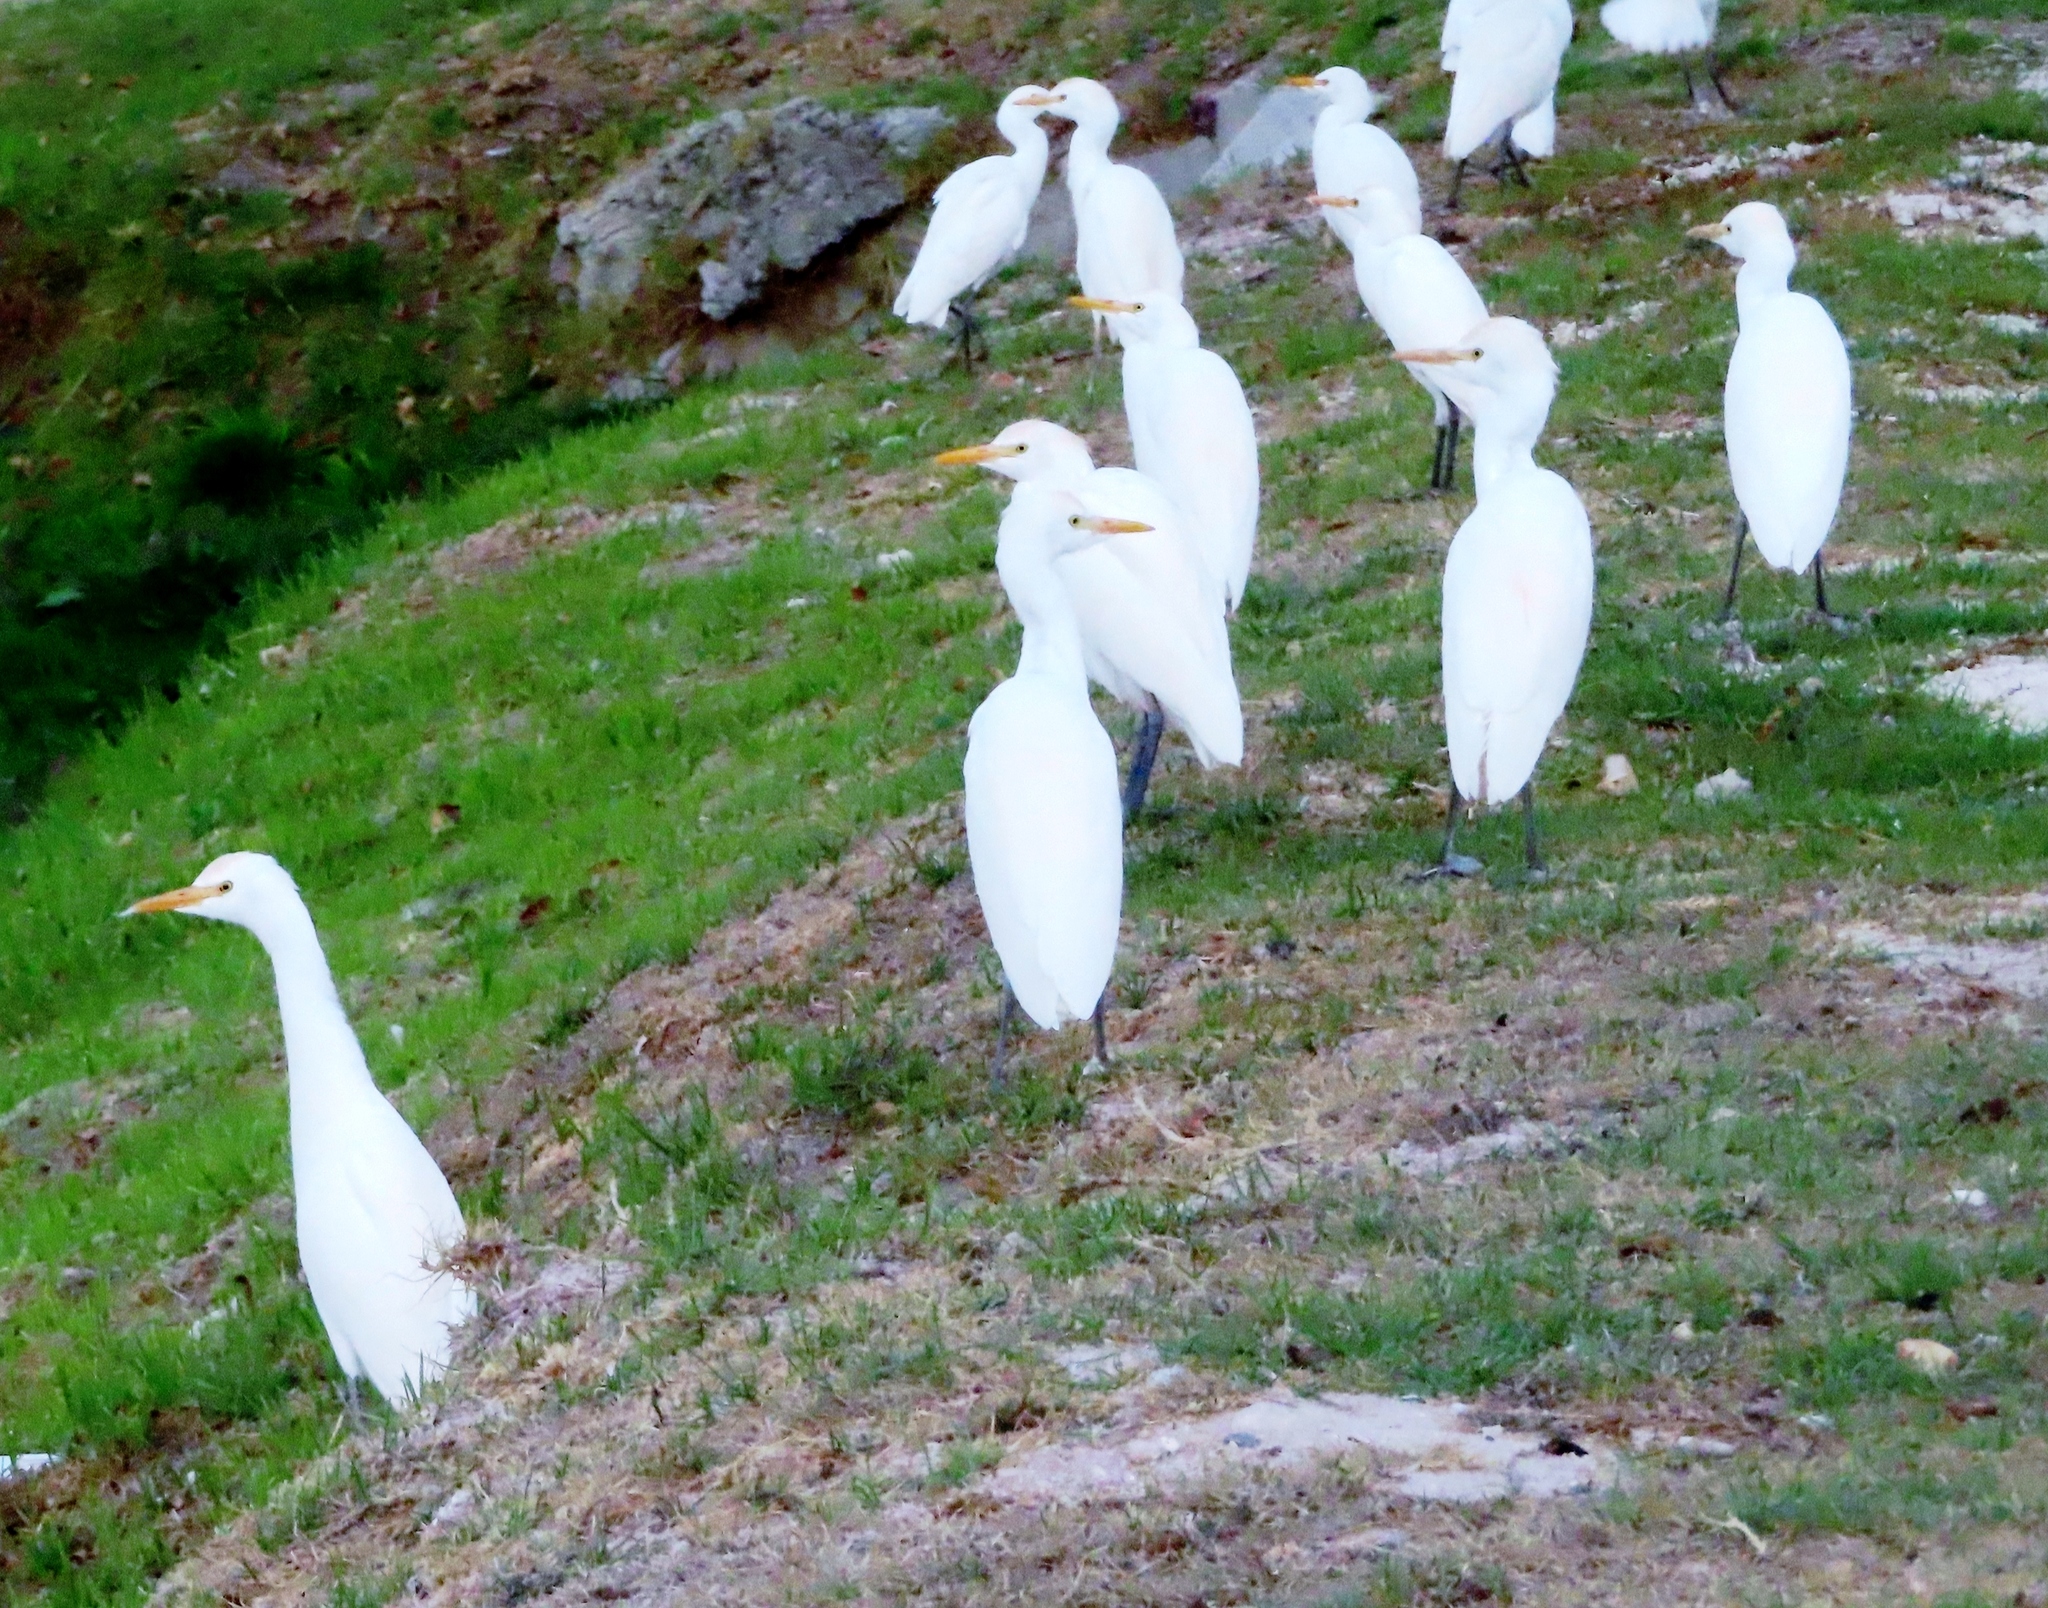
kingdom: Animalia
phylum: Chordata
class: Aves
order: Pelecaniformes
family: Ardeidae
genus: Bubulcus
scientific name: Bubulcus ibis
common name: Cattle egret
